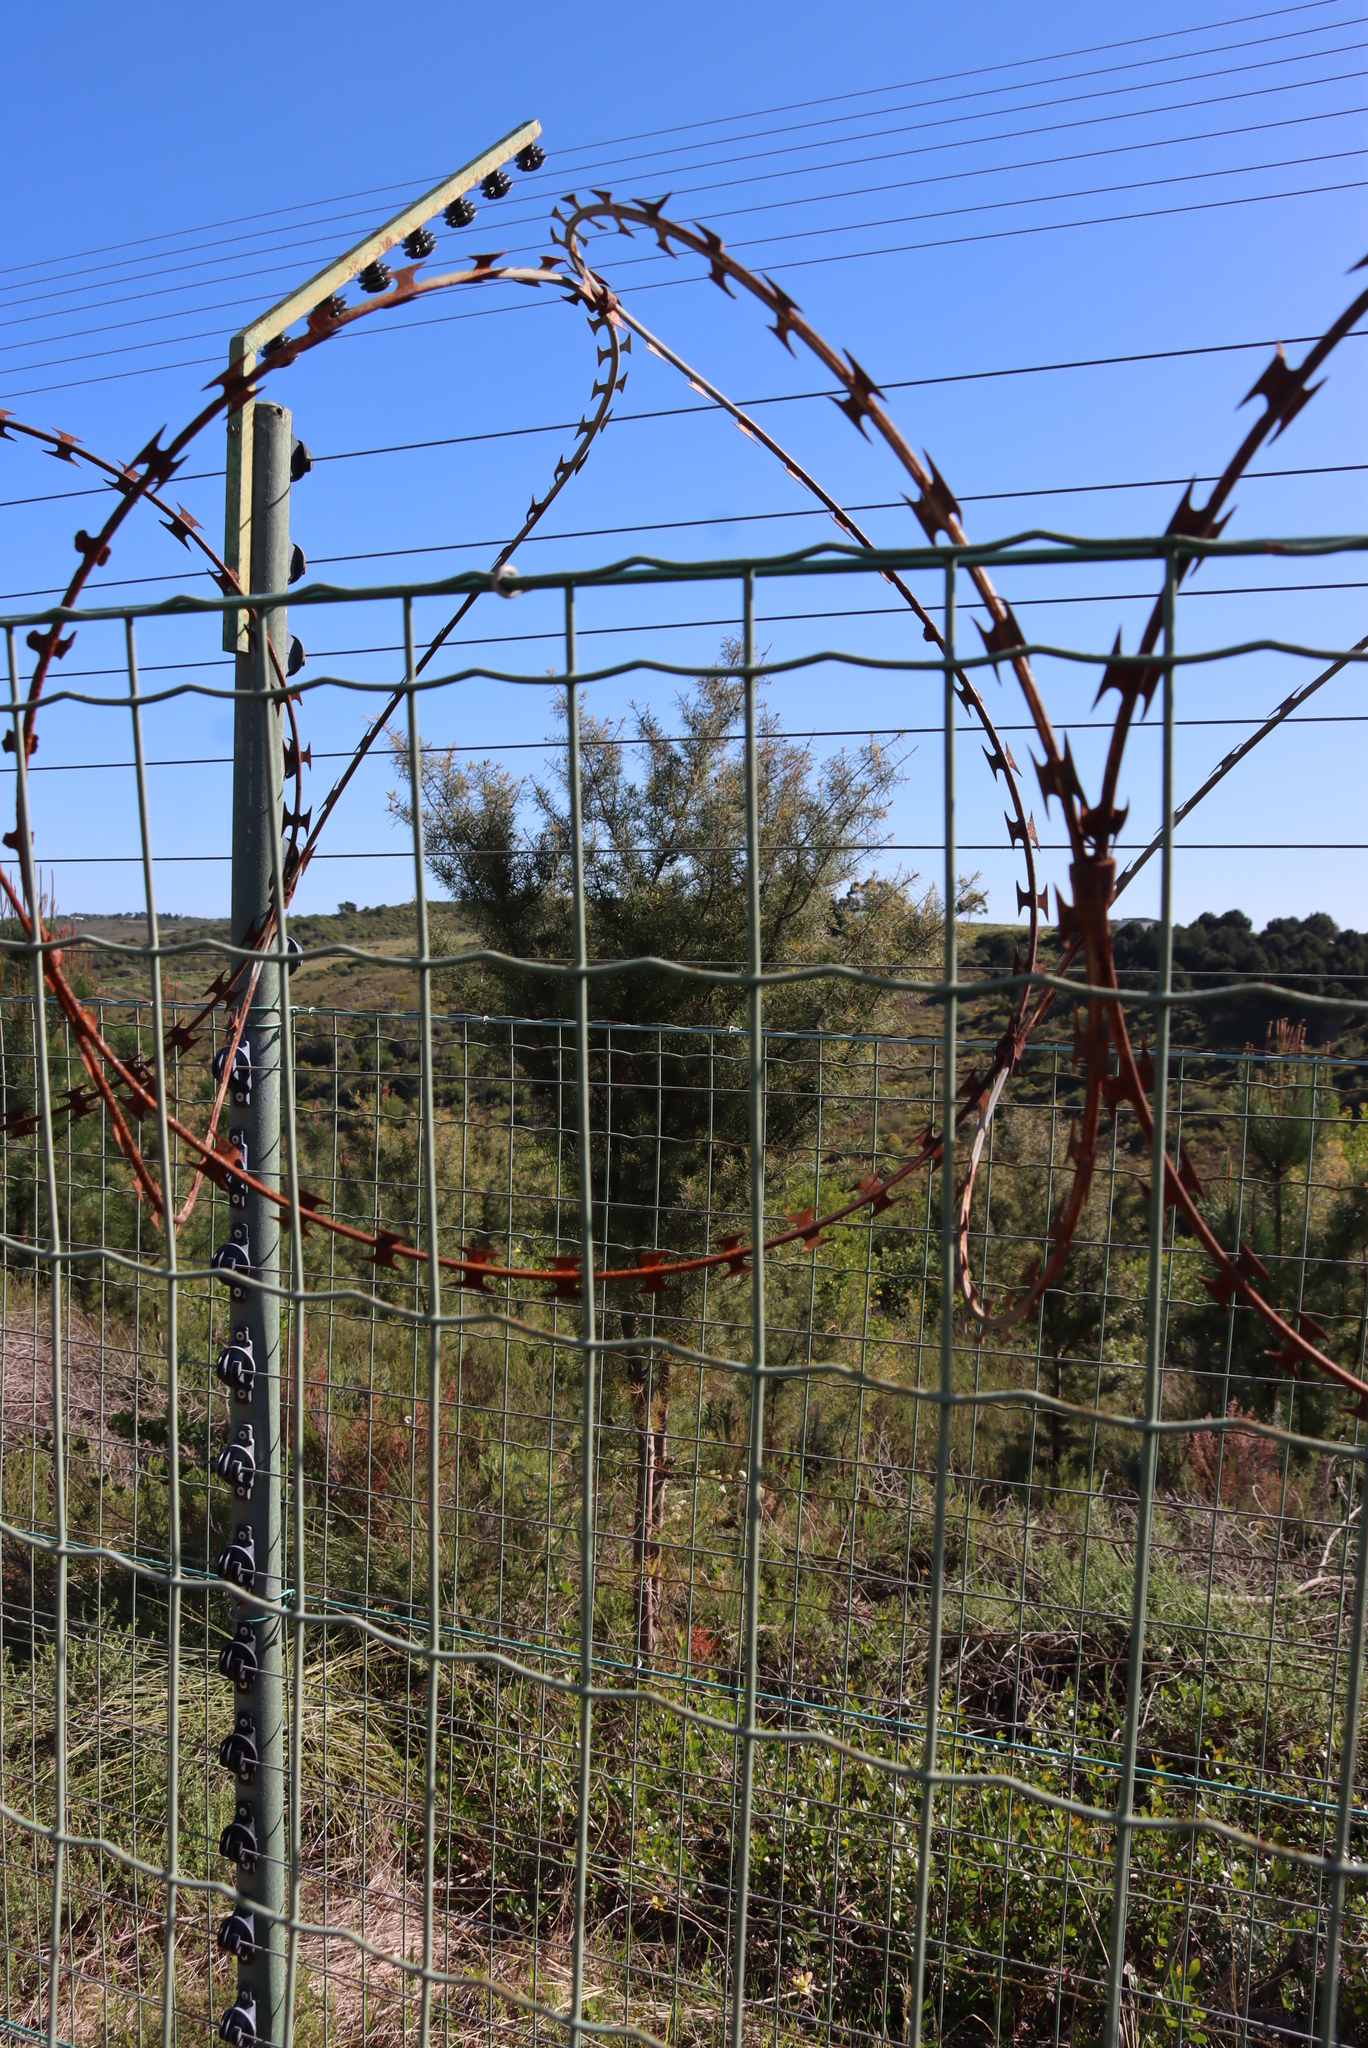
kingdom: Plantae
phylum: Tracheophyta
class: Magnoliopsida
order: Proteales
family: Proteaceae
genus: Hakea
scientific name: Hakea sericea
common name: Needle bush
